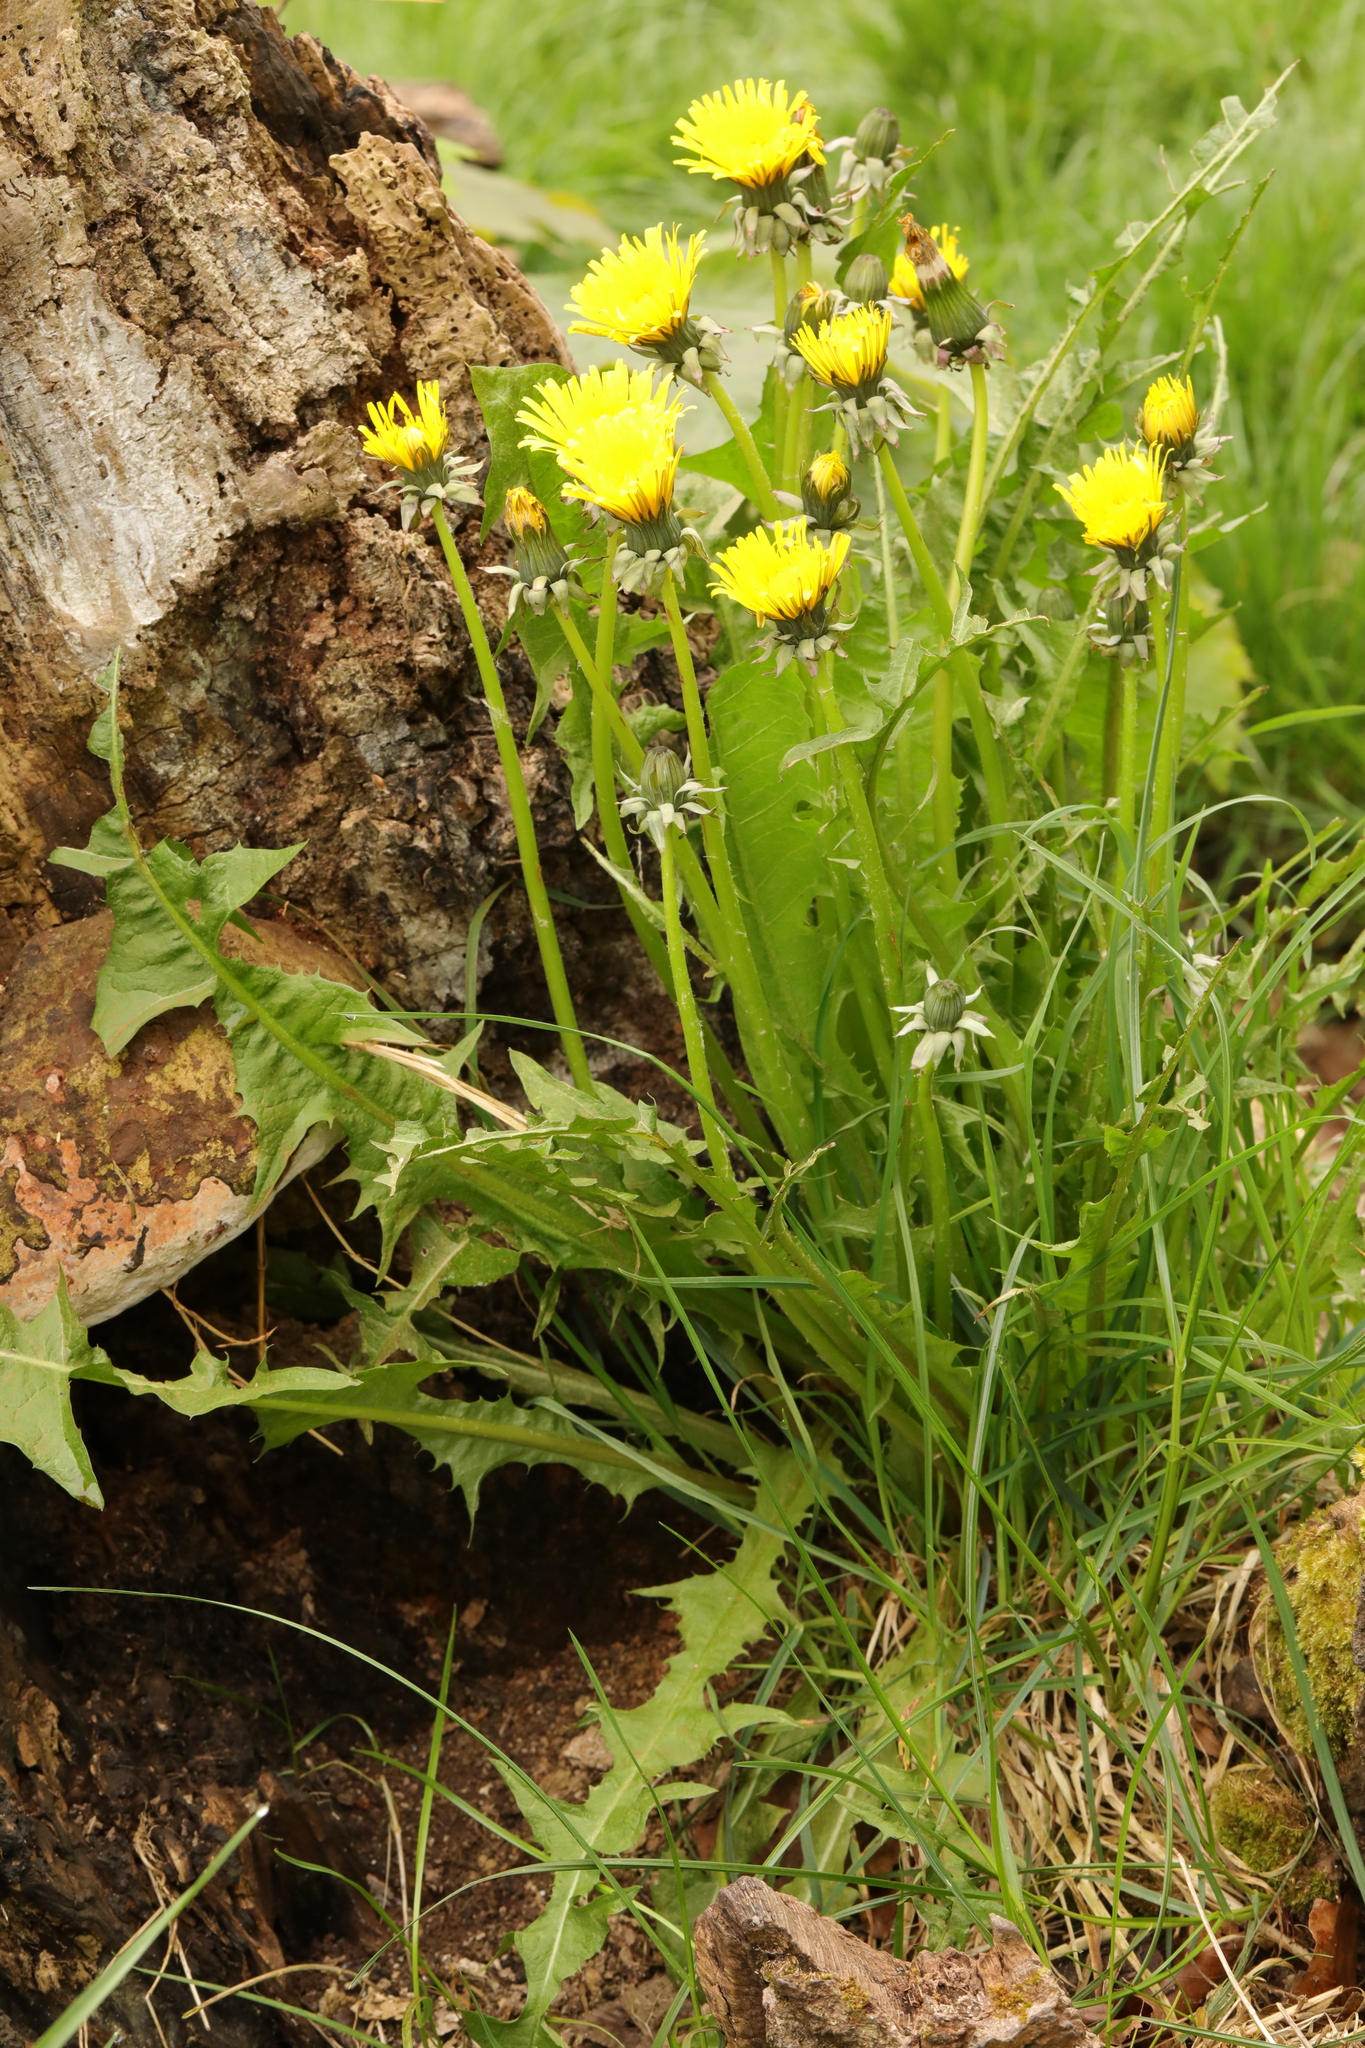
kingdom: Plantae
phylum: Tracheophyta
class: Magnoliopsida
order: Asterales
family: Asteraceae
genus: Taraxacum
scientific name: Taraxacum officinale
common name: Common dandelion
